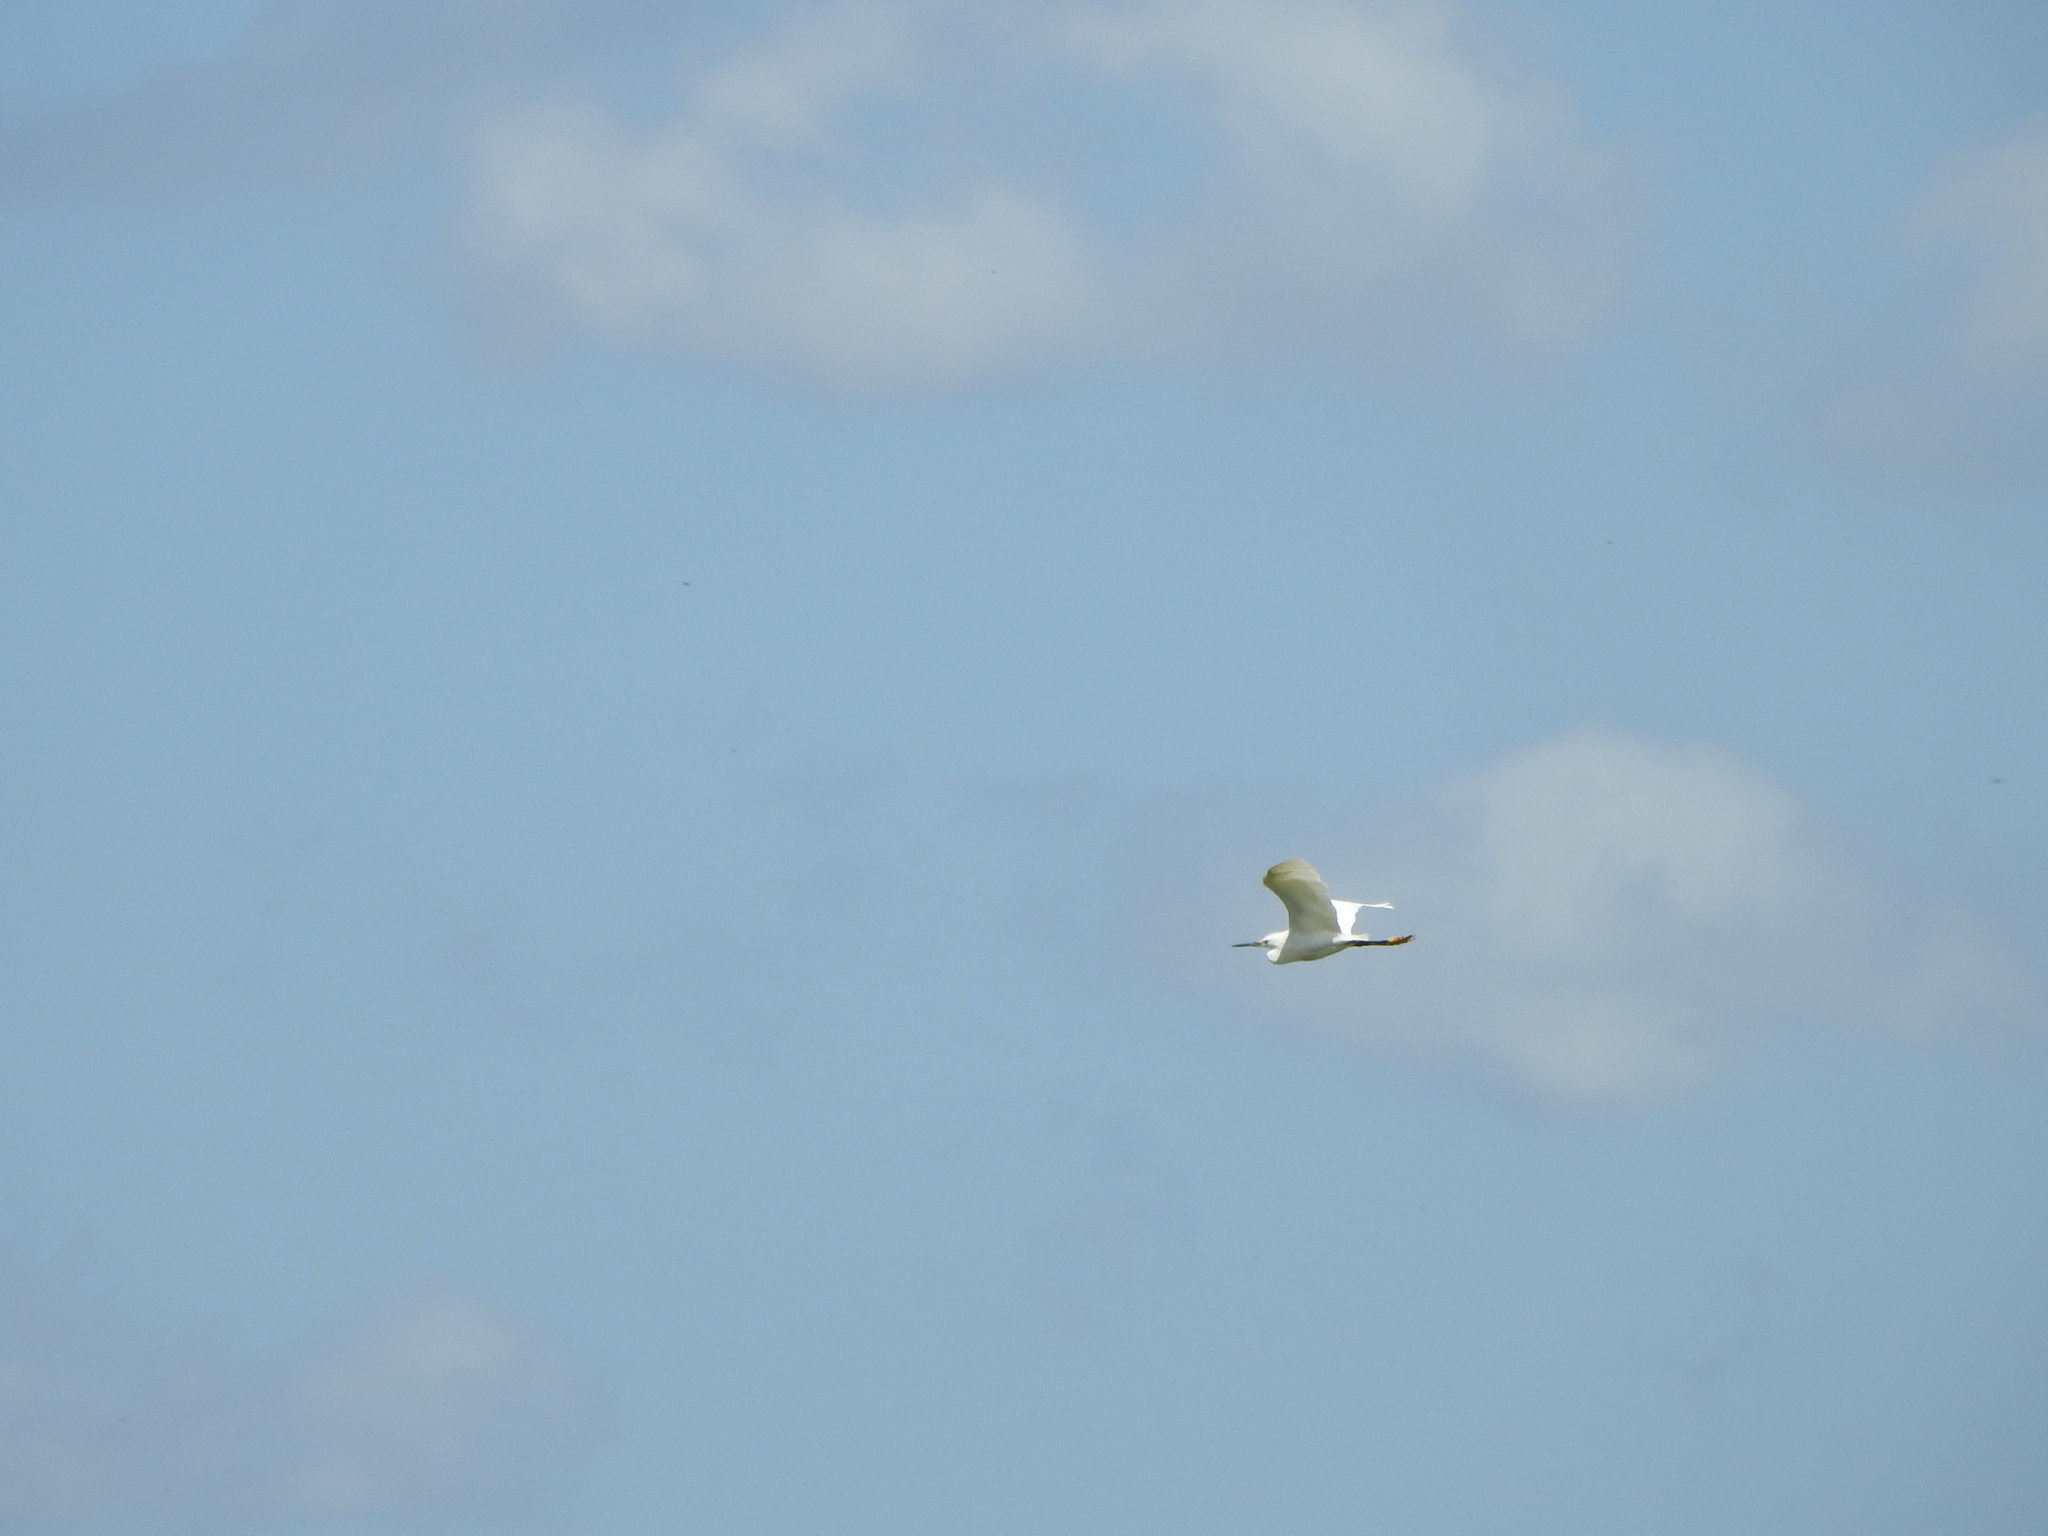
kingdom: Animalia
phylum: Chordata
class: Aves
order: Pelecaniformes
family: Ardeidae
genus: Egretta
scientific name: Egretta thula
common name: Snowy egret
